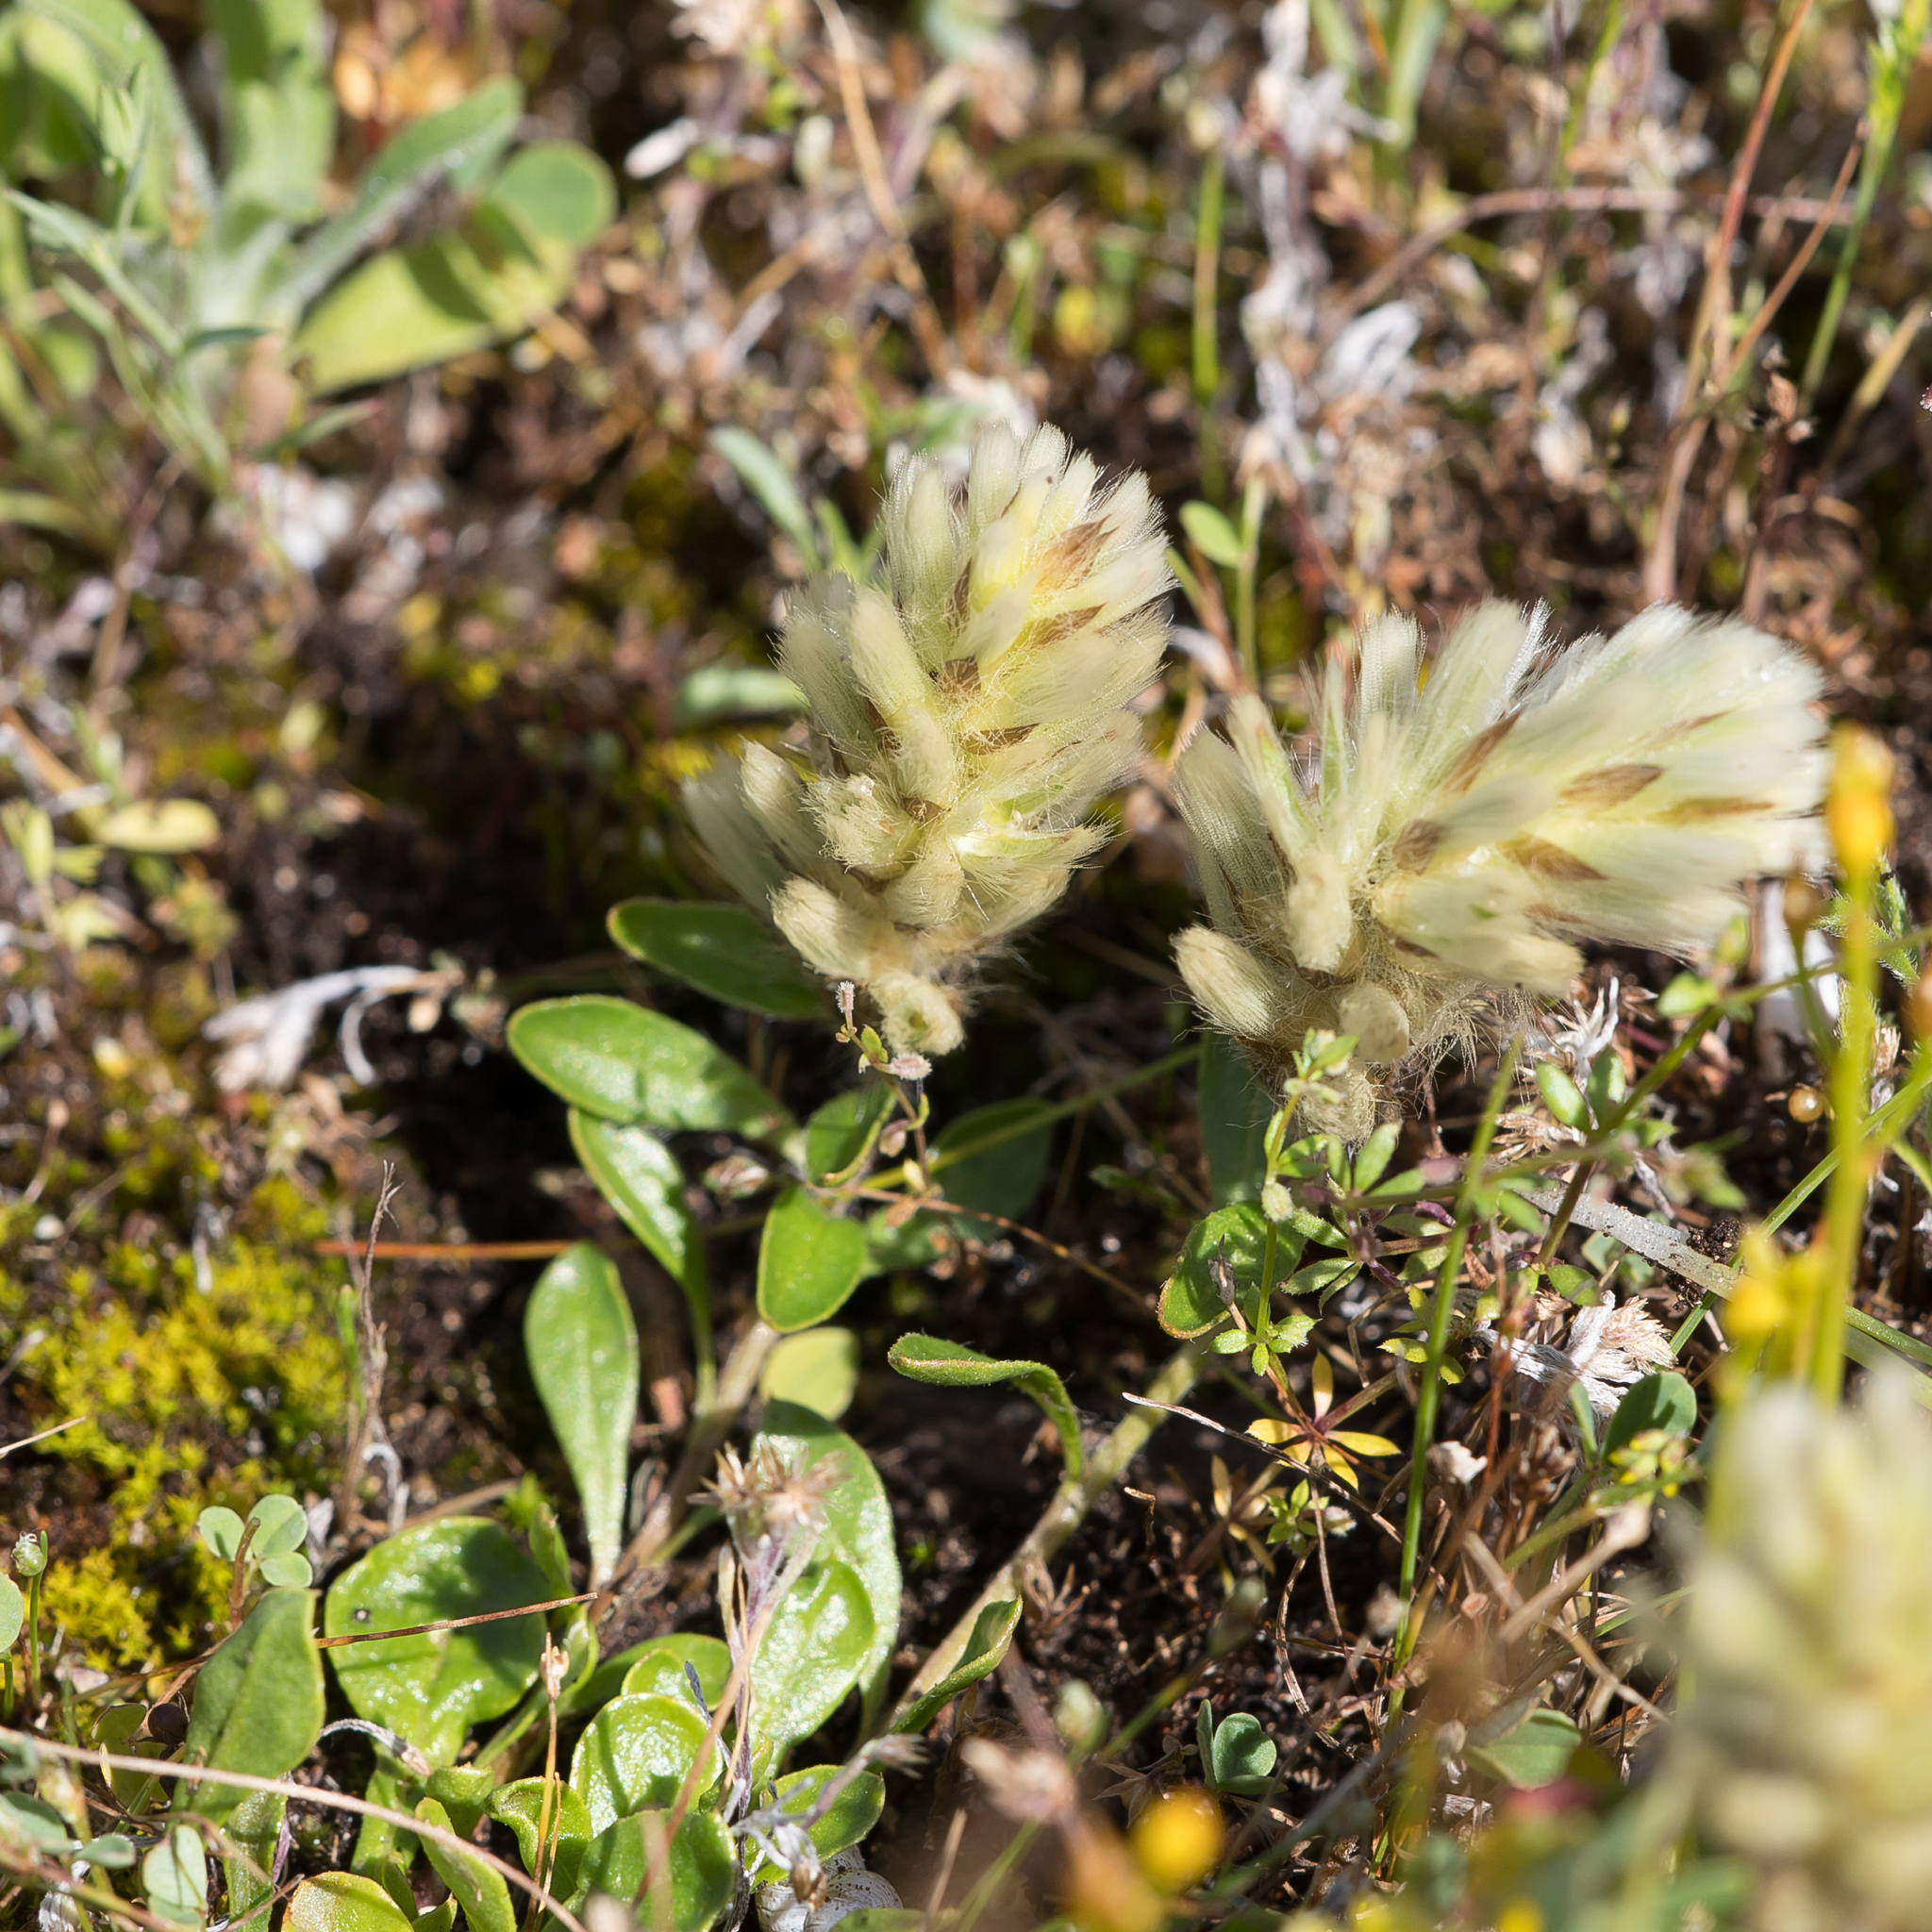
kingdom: Plantae
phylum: Tracheophyta
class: Magnoliopsida
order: Caryophyllales
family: Amaranthaceae
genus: Ptilotus
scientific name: Ptilotus spathulatus
